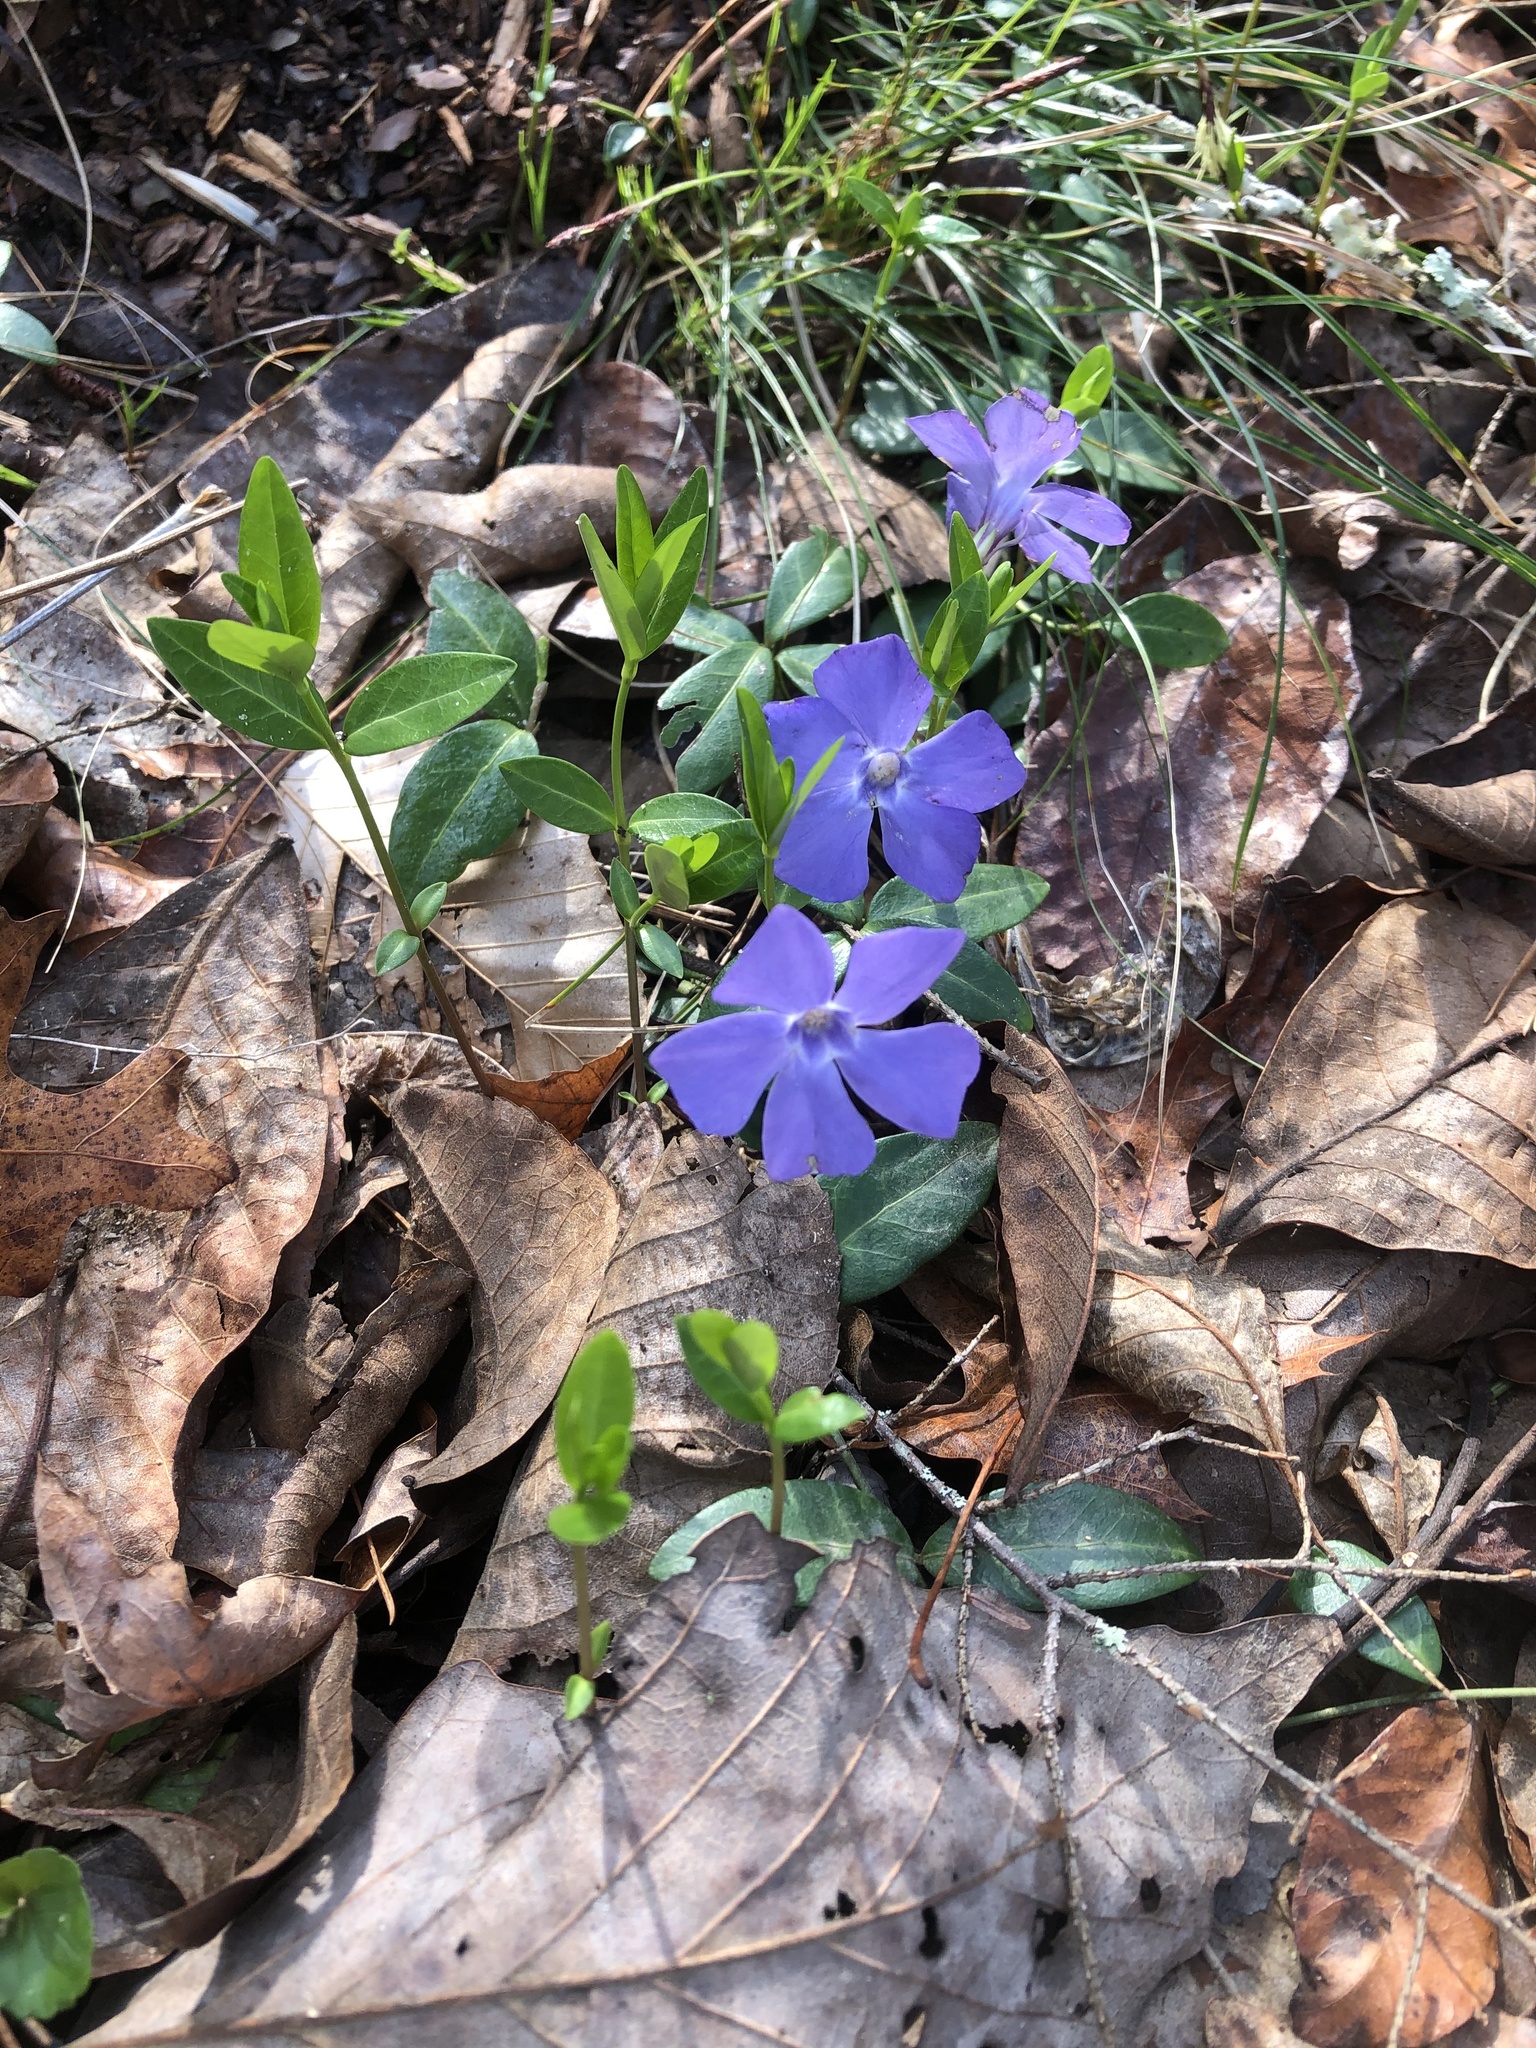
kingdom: Plantae
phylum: Tracheophyta
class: Magnoliopsida
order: Gentianales
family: Apocynaceae
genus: Vinca
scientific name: Vinca minor
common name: Lesser periwinkle
